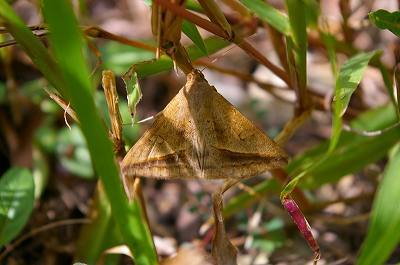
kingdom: Animalia
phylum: Arthropoda
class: Insecta
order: Lepidoptera
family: Erebidae
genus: Mocis
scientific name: Mocis frugalis
